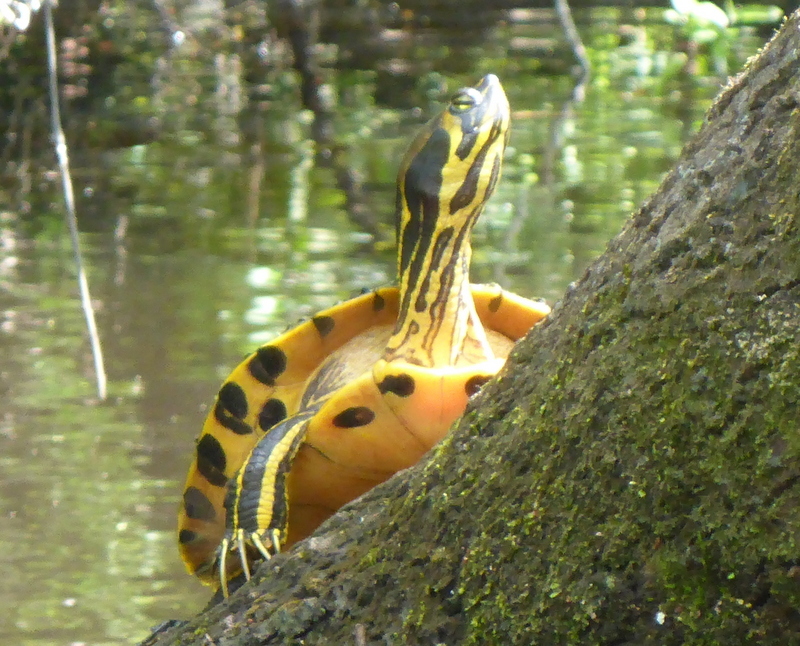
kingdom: Animalia
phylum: Chordata
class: Testudines
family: Emydidae
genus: Trachemys
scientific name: Trachemys scripta
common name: Slider
